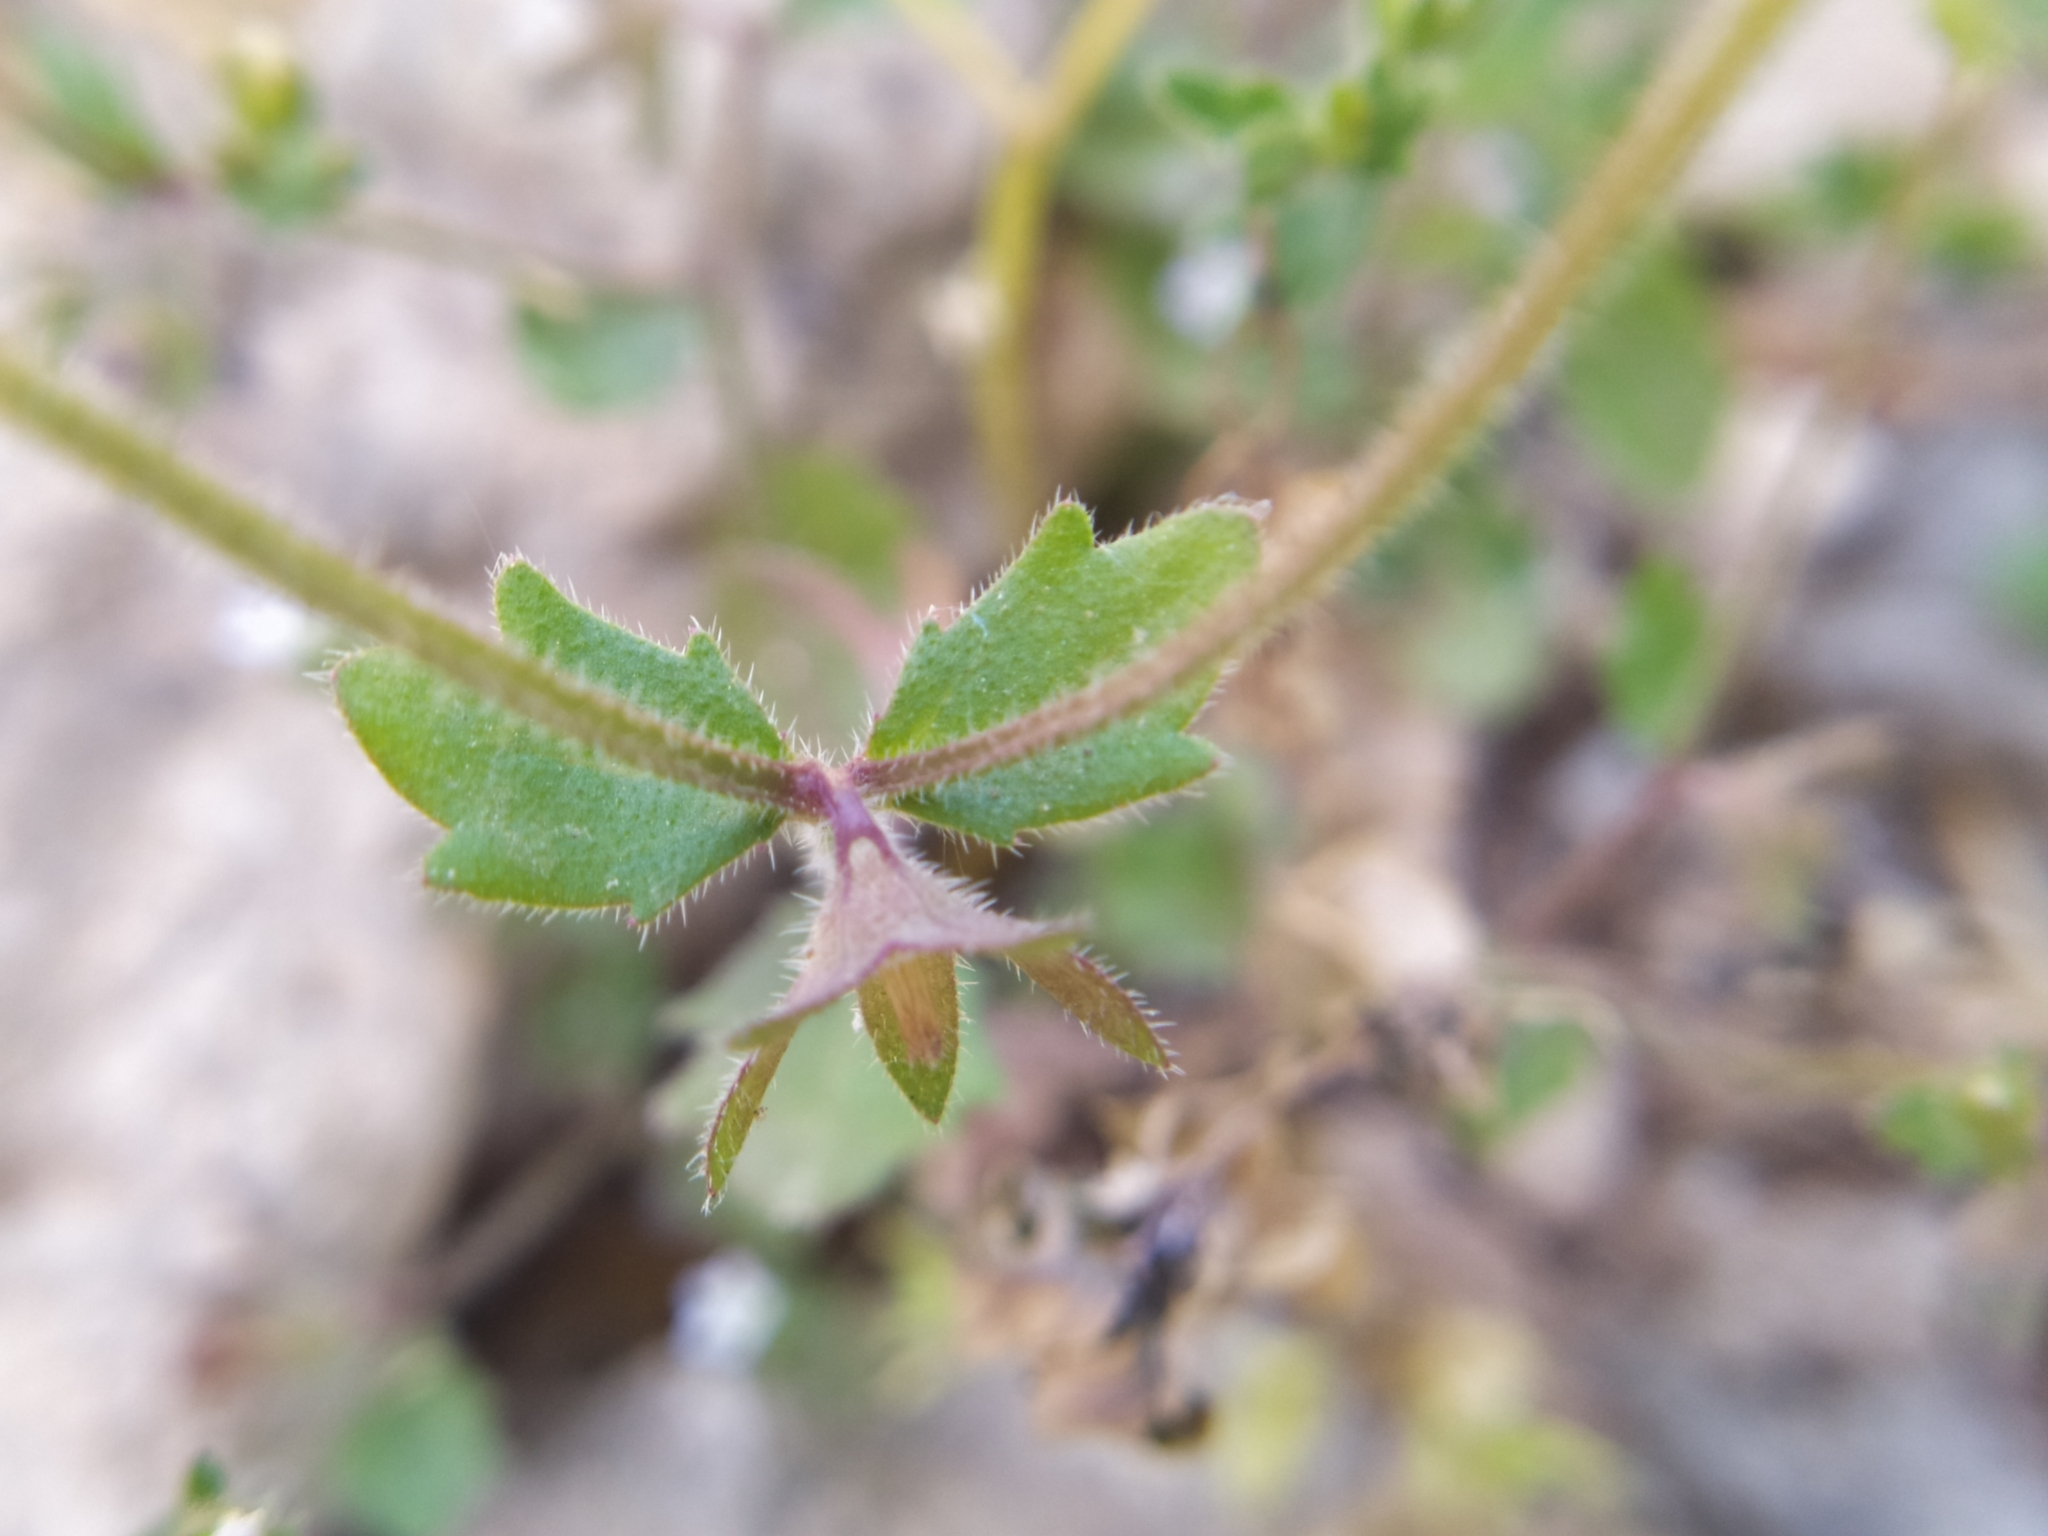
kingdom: Plantae
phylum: Tracheophyta
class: Magnoliopsida
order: Asterales
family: Campanulaceae
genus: Campanula
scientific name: Campanula erinus
